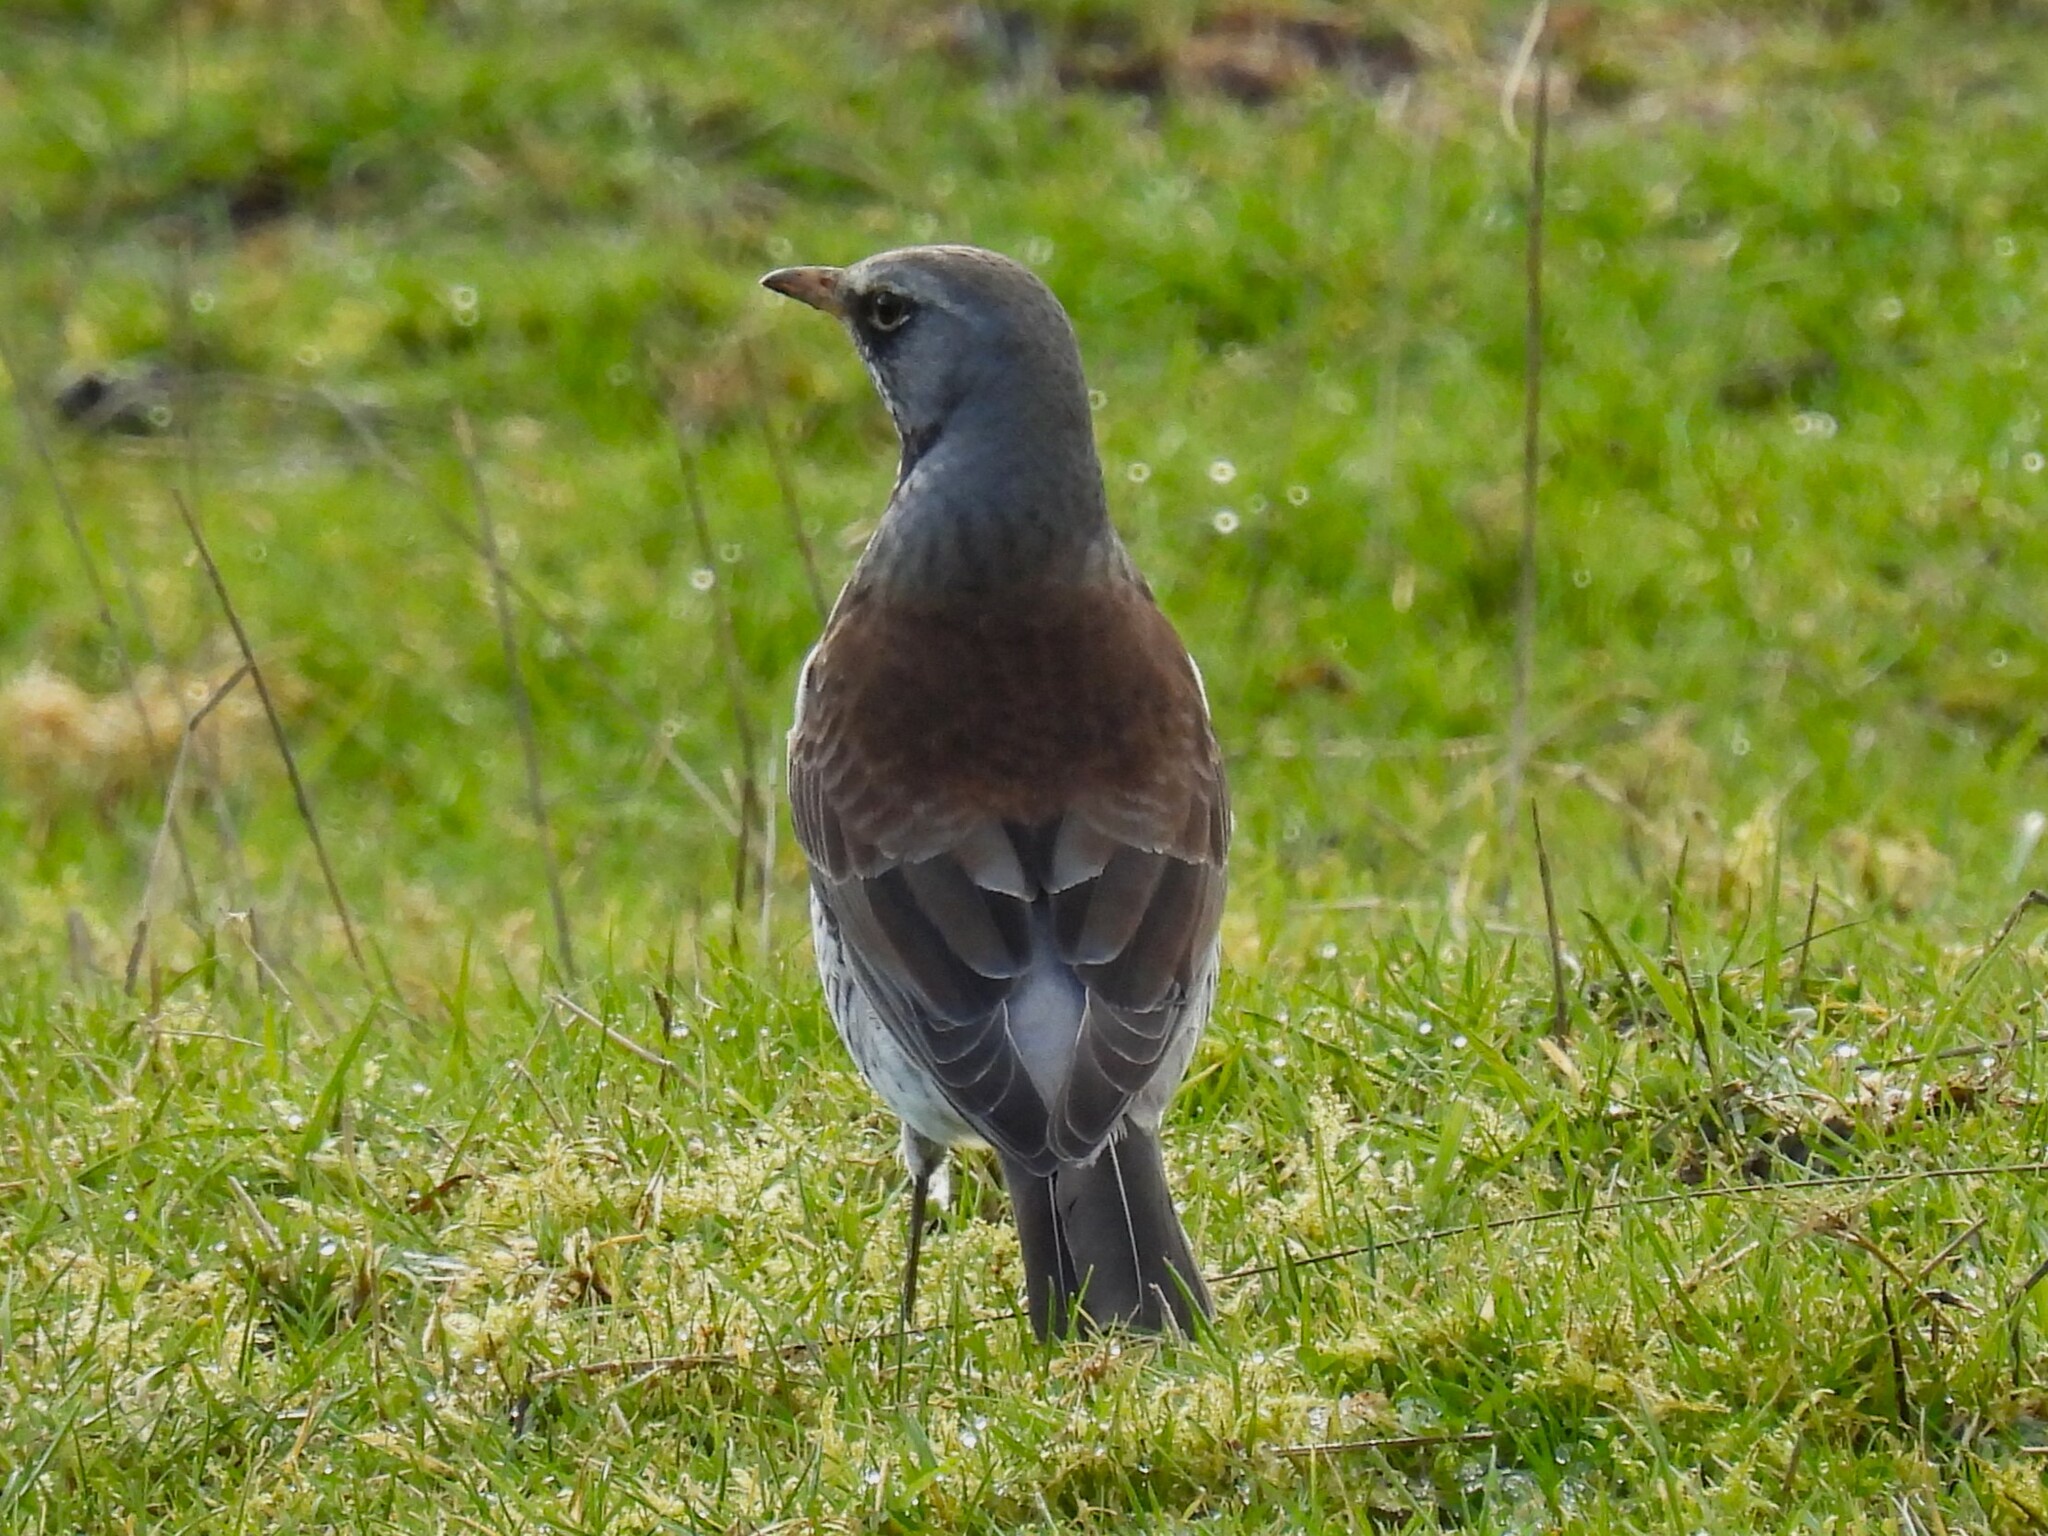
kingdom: Animalia
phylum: Chordata
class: Aves
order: Passeriformes
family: Turdidae
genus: Turdus
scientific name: Turdus pilaris
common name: Fieldfare
